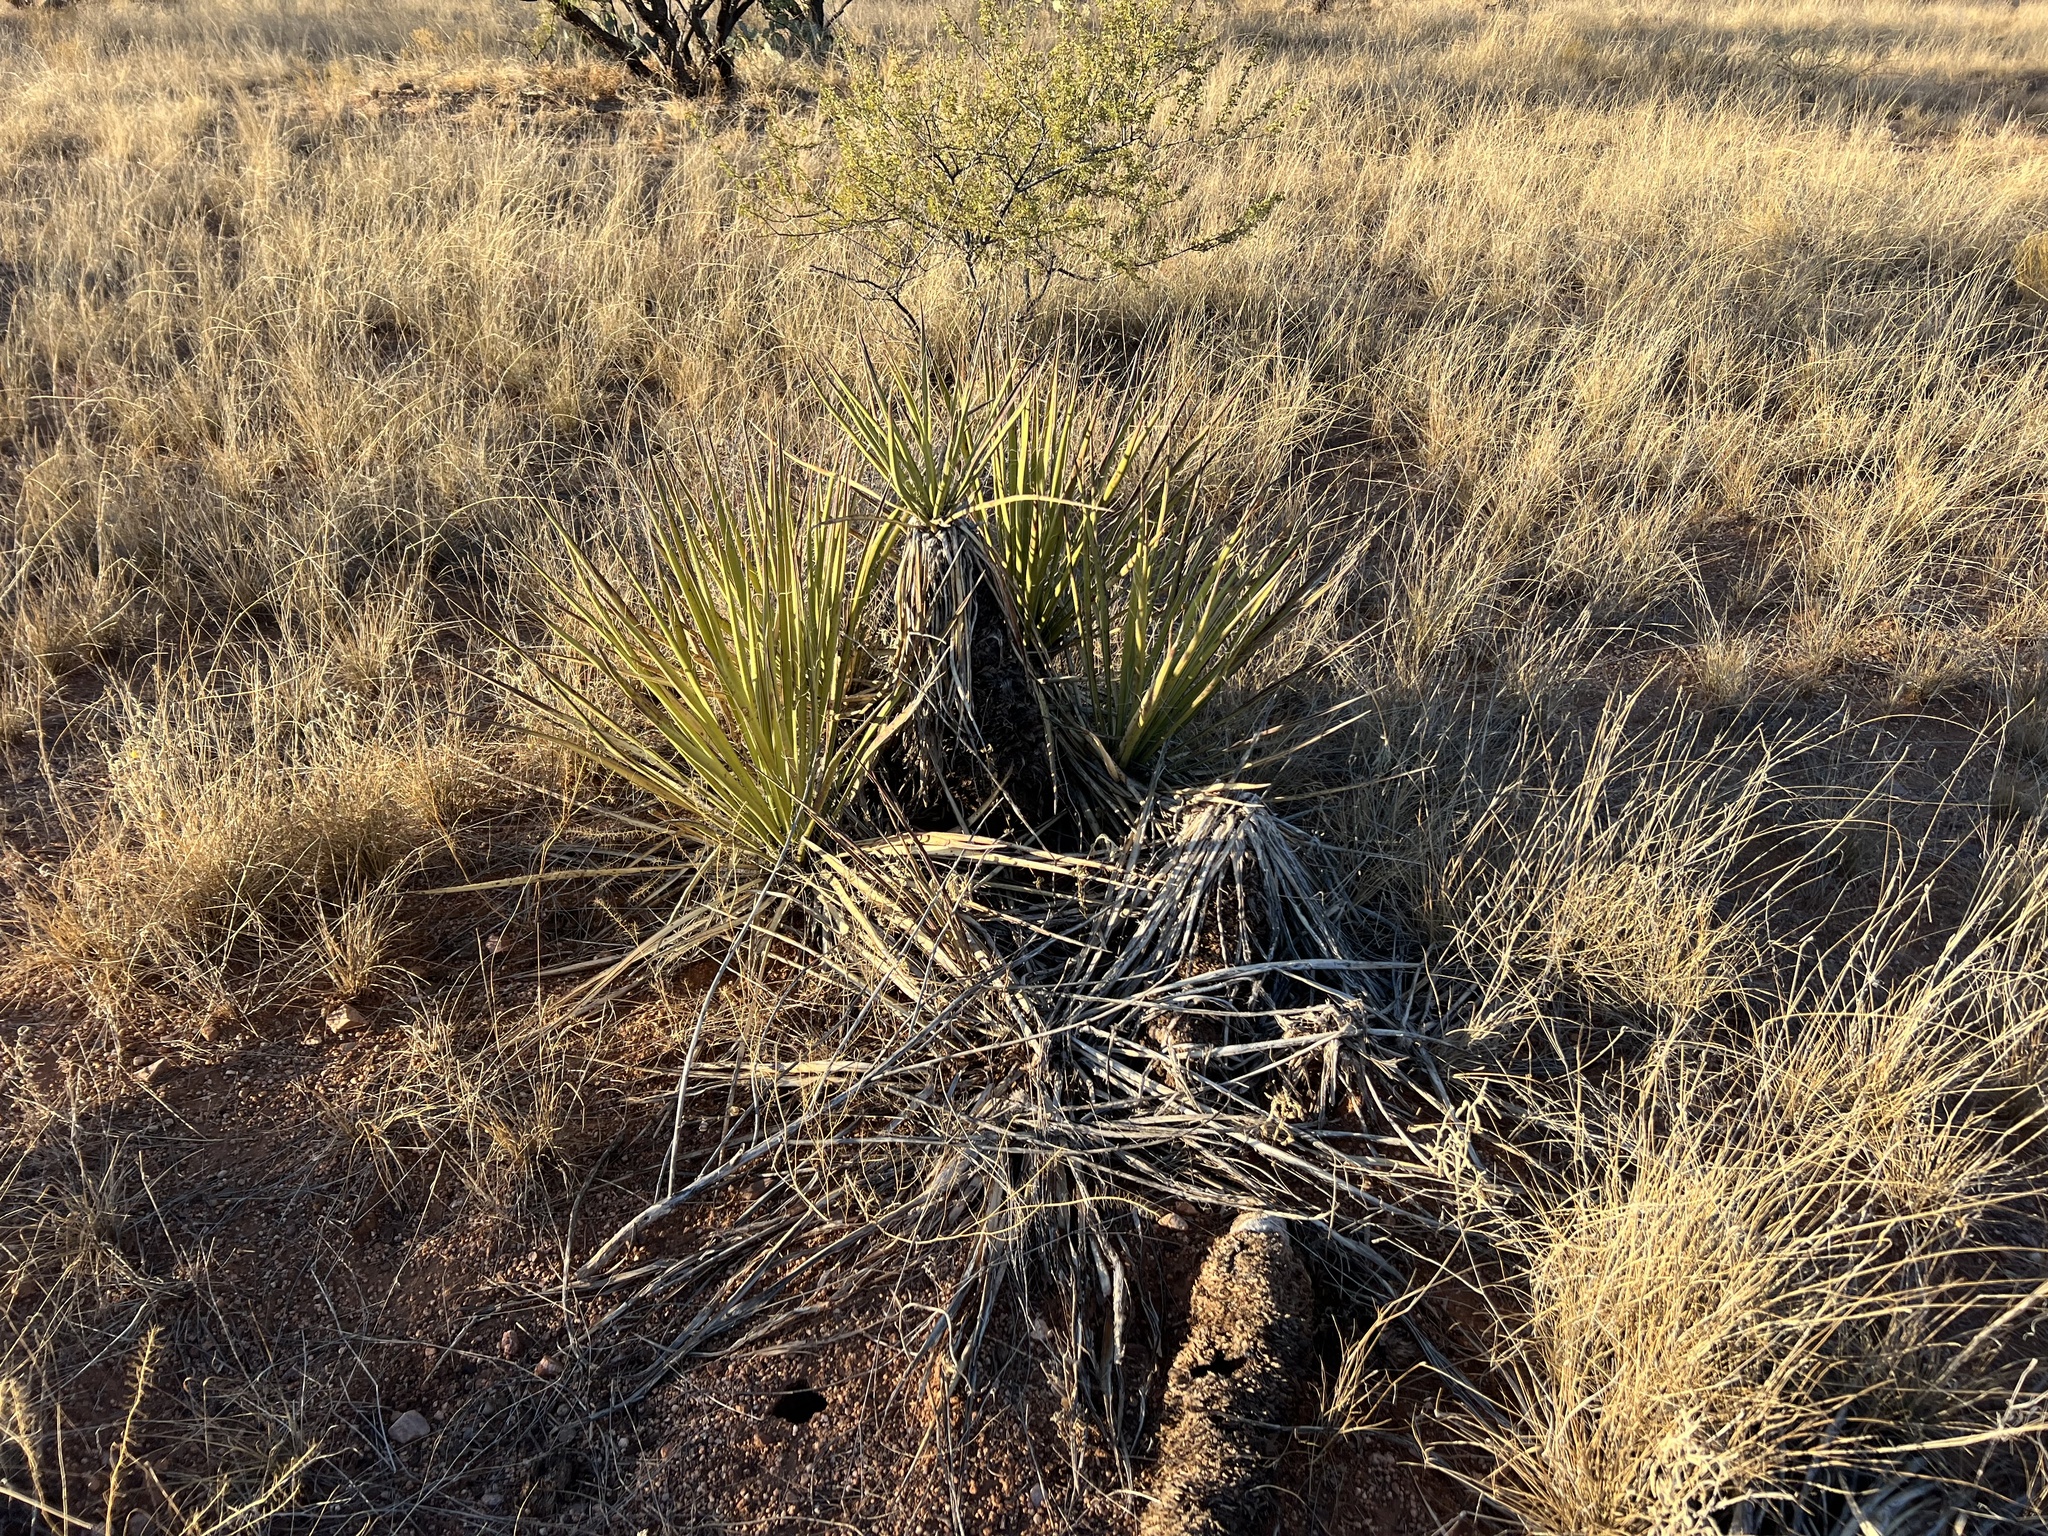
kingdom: Plantae
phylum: Tracheophyta
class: Liliopsida
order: Asparagales
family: Asparagaceae
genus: Yucca
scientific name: Yucca baccata
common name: Banana yucca
